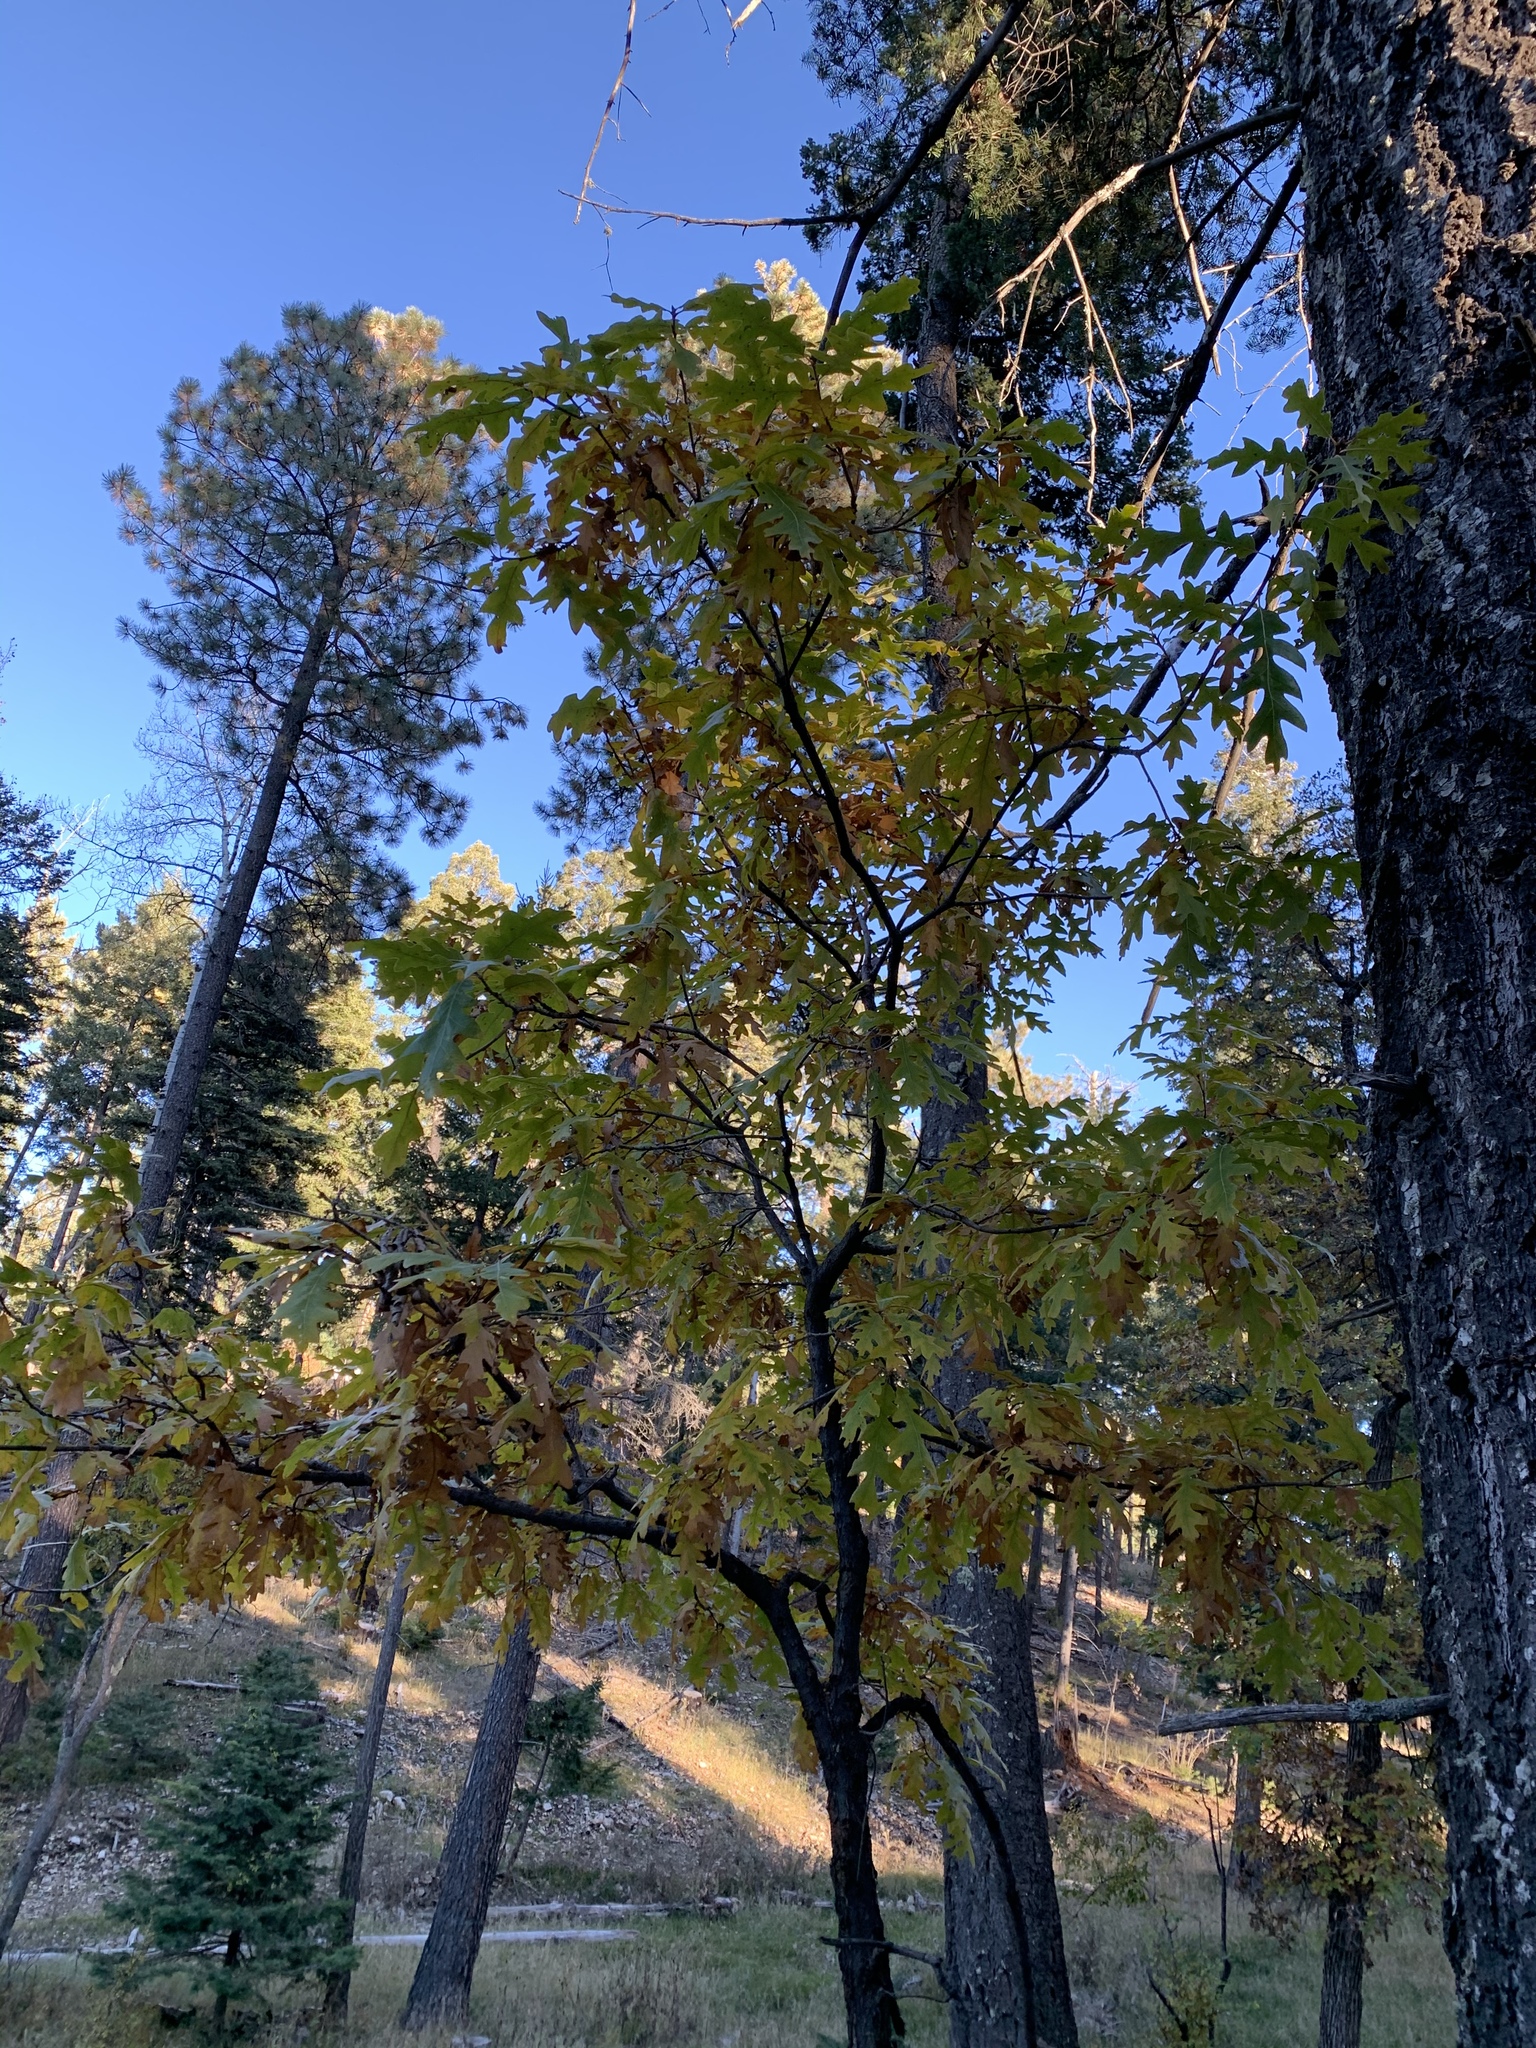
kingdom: Plantae
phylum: Tracheophyta
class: Magnoliopsida
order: Fagales
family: Fagaceae
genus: Quercus
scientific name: Quercus gambelii
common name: Gambel oak
